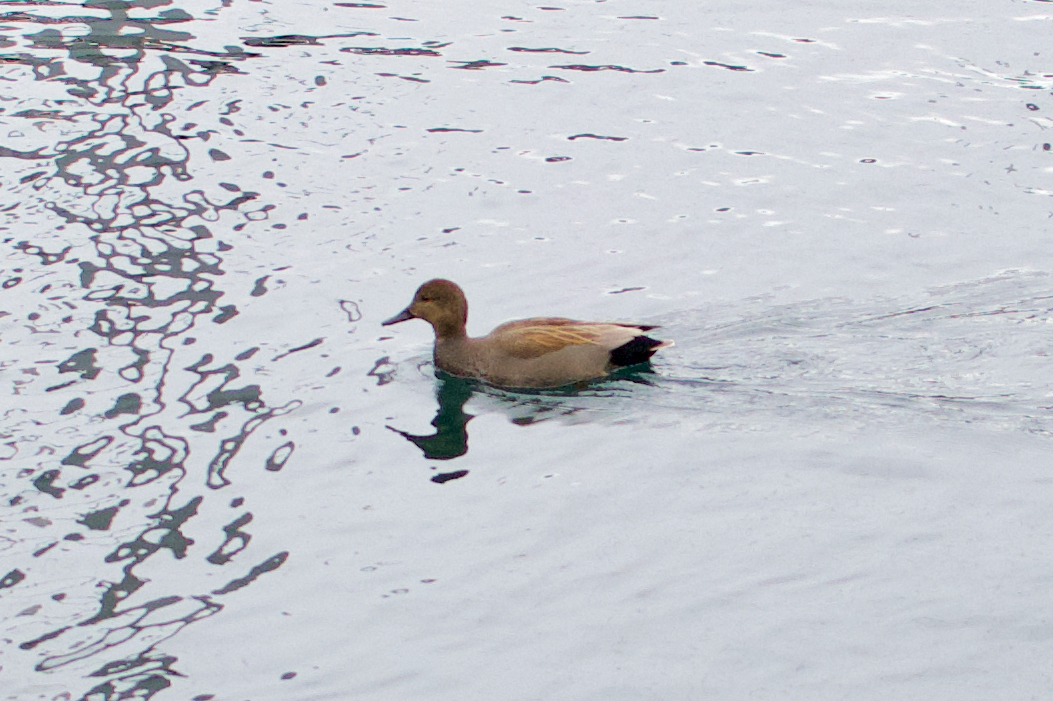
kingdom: Animalia
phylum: Chordata
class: Aves
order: Anseriformes
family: Anatidae
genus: Mareca
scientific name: Mareca strepera
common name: Gadwall
